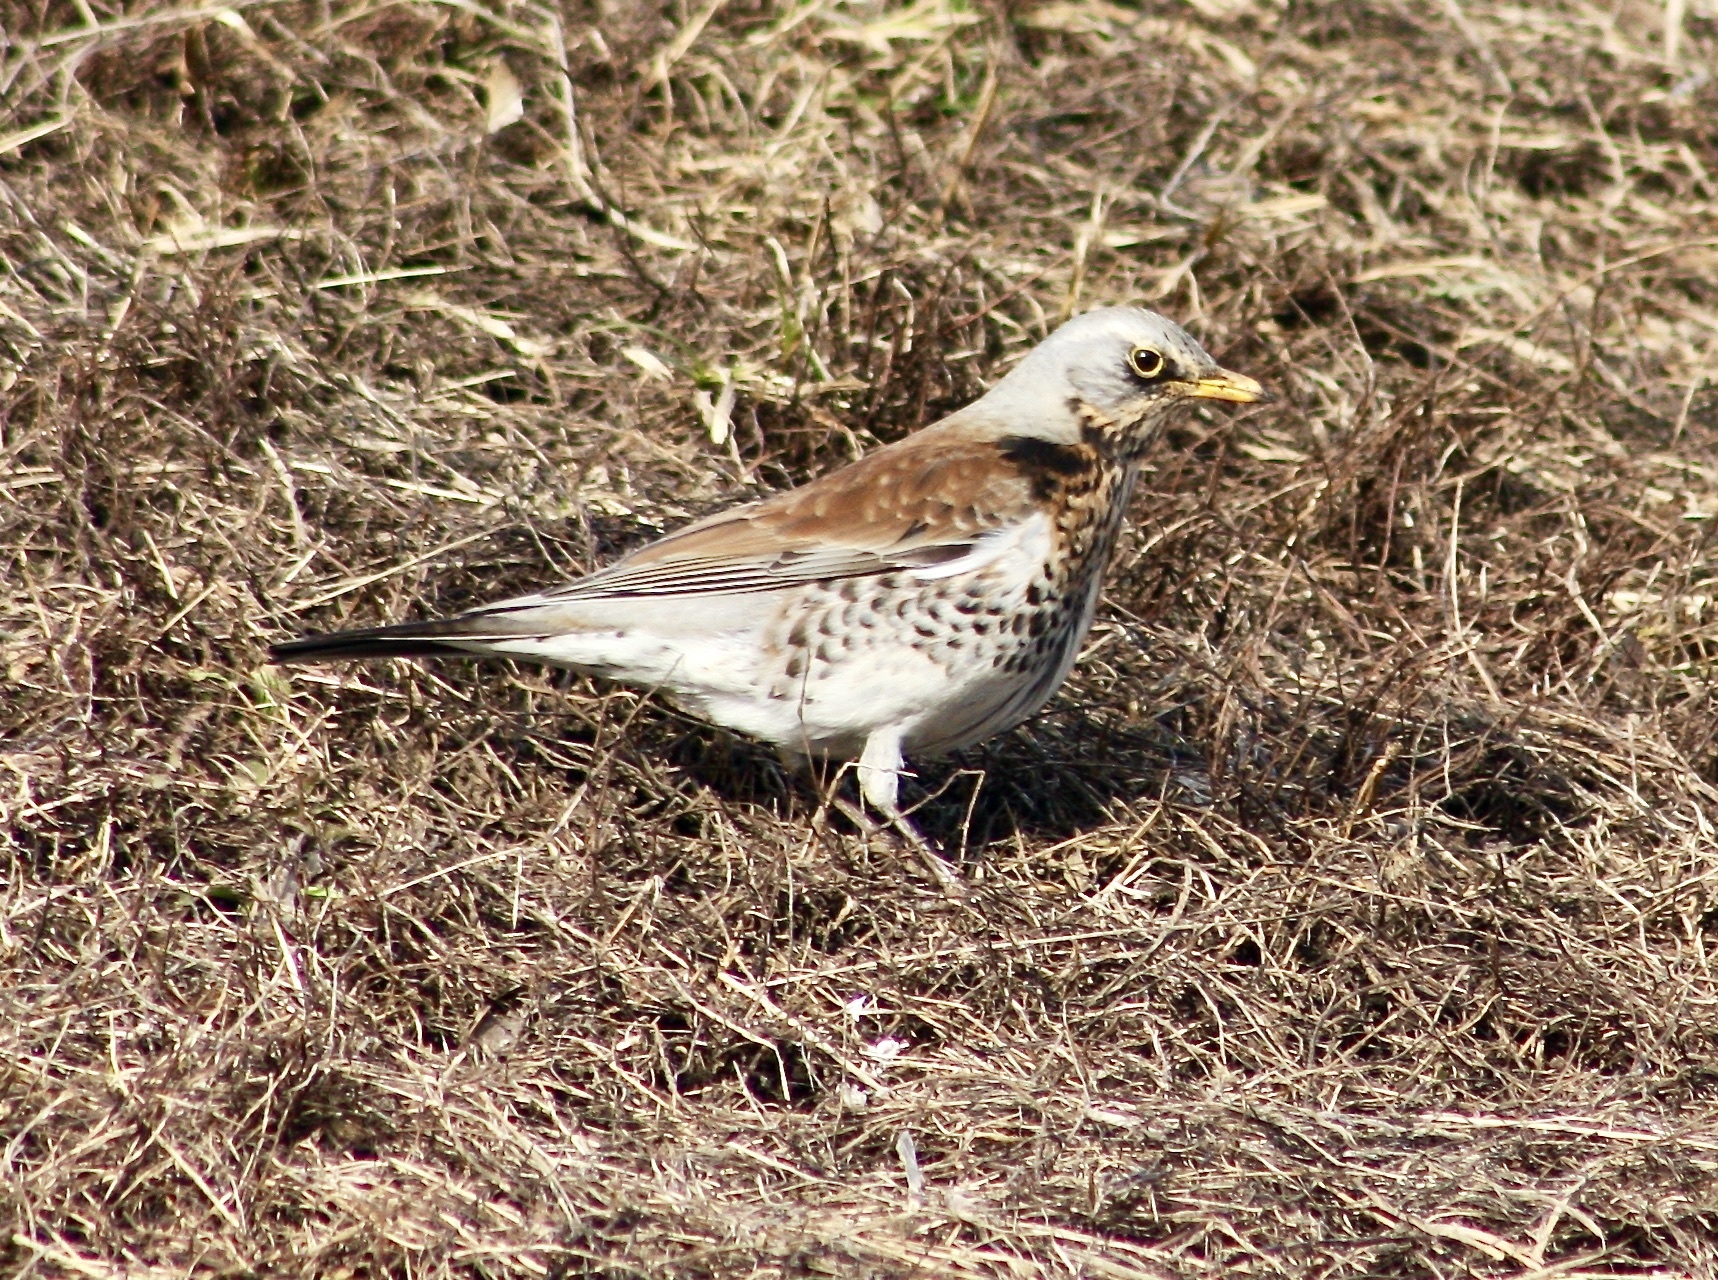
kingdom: Animalia
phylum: Chordata
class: Aves
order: Passeriformes
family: Turdidae
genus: Turdus
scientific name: Turdus pilaris
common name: Fieldfare
